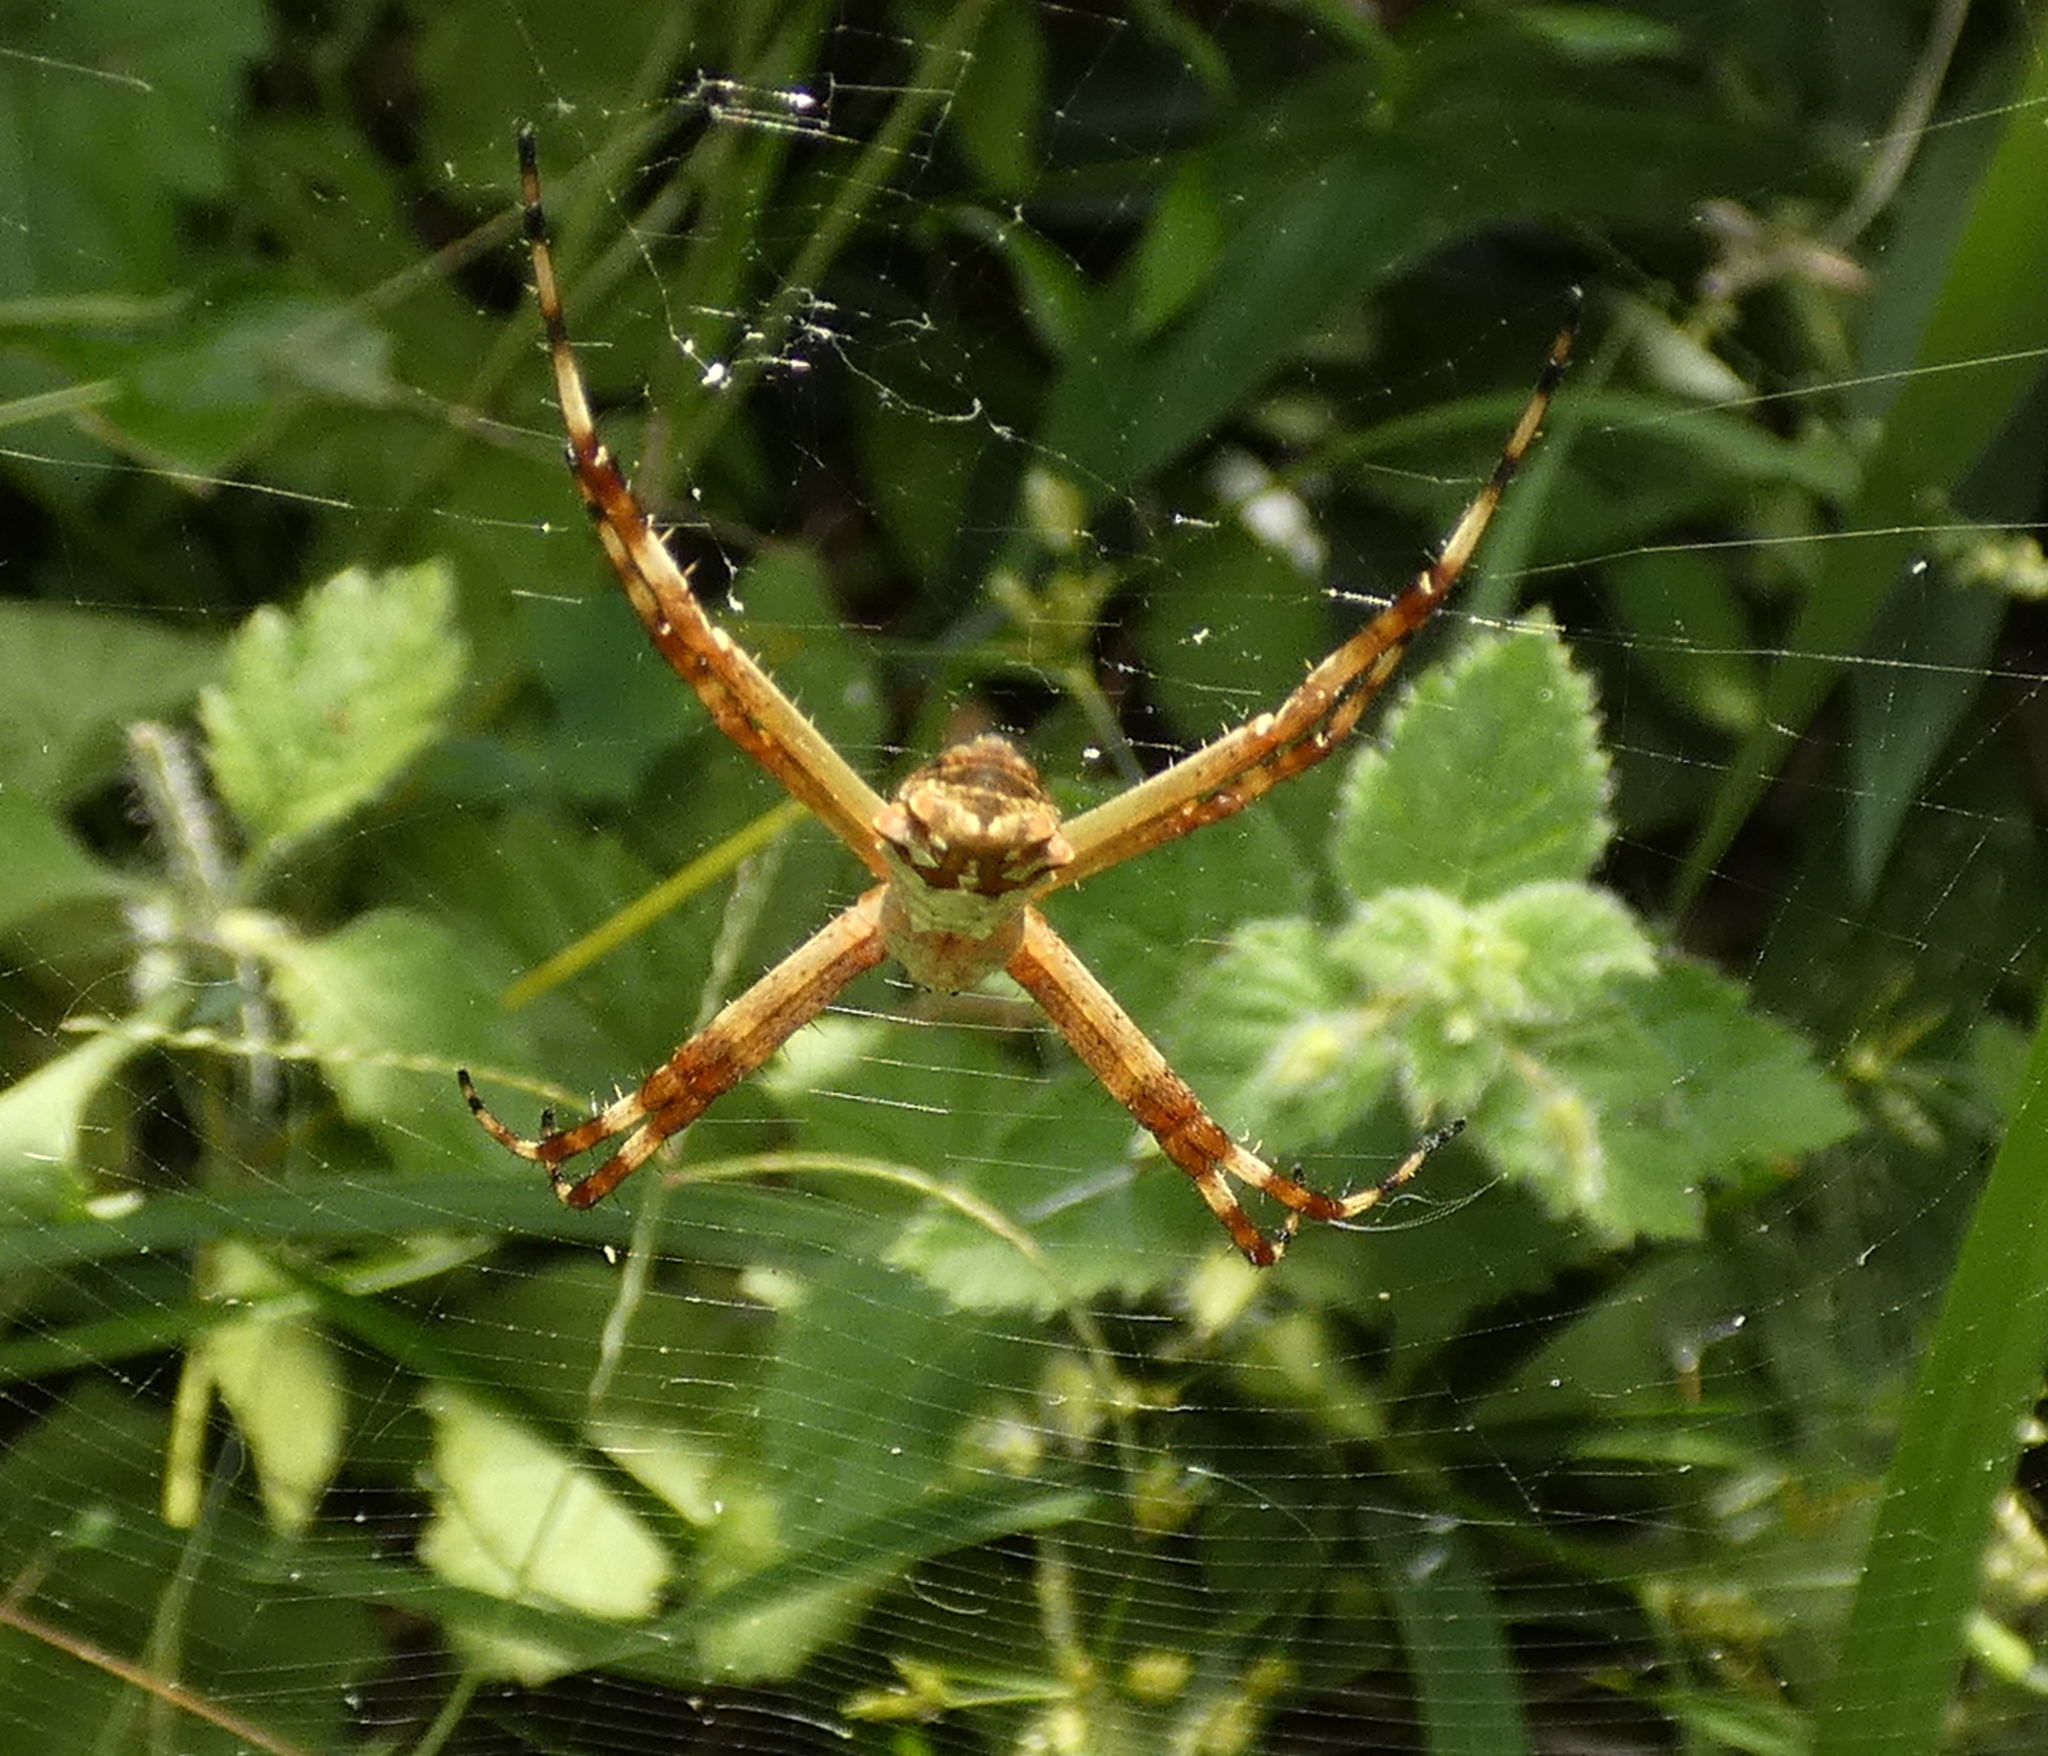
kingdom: Animalia
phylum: Arthropoda
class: Arachnida
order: Araneae
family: Araneidae
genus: Argiope
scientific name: Argiope argentata
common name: Orb weavers
